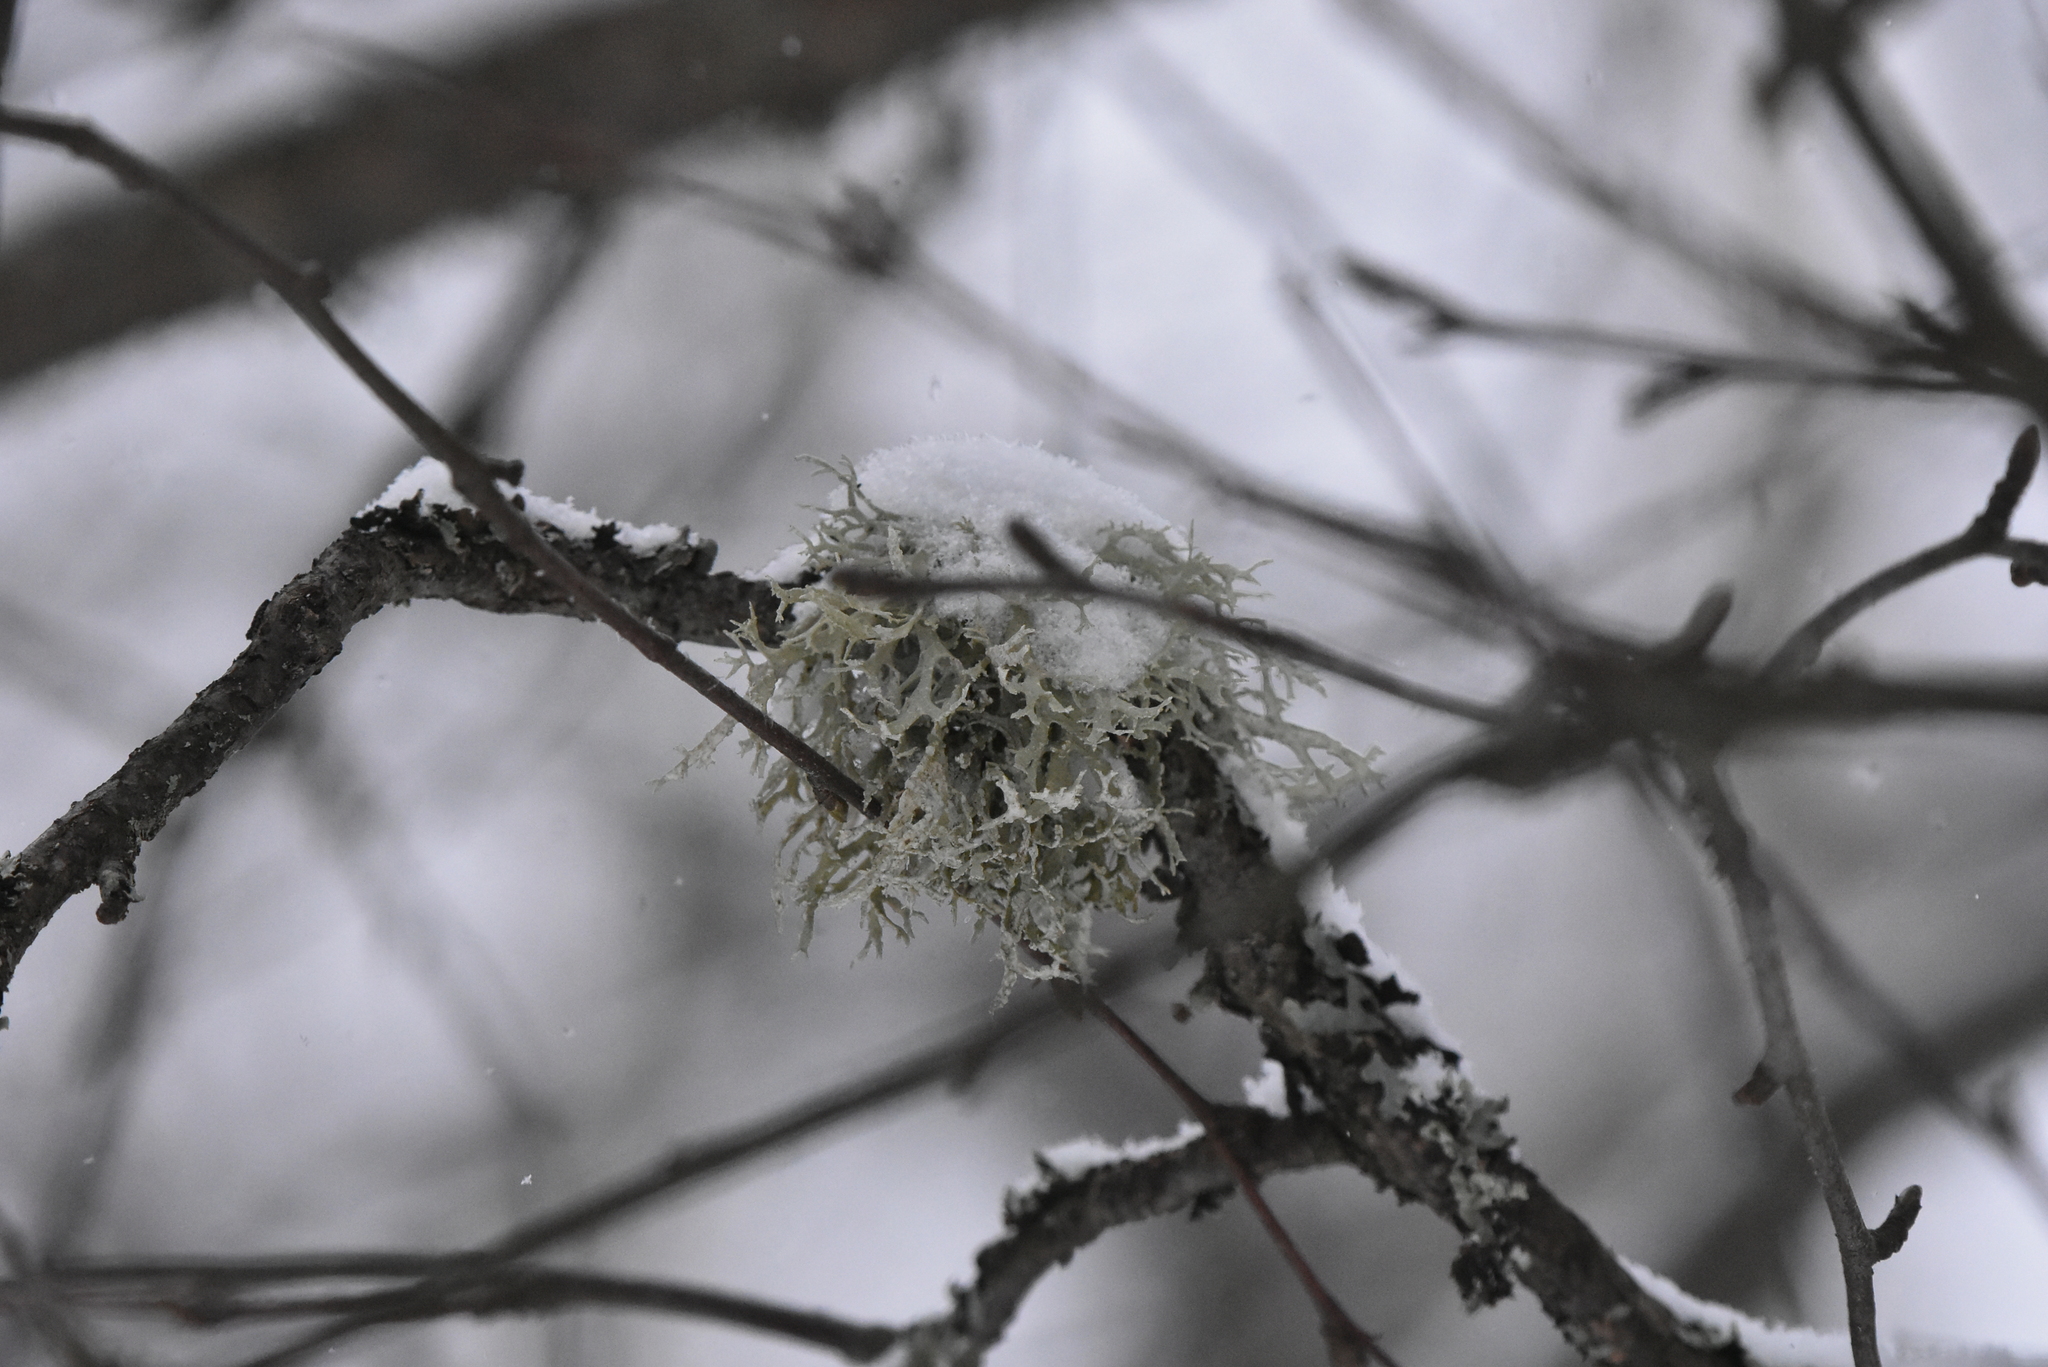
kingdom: Fungi
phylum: Ascomycota
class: Lecanoromycetes
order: Lecanorales
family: Parmeliaceae
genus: Evernia
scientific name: Evernia prunastri
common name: Oak moss
